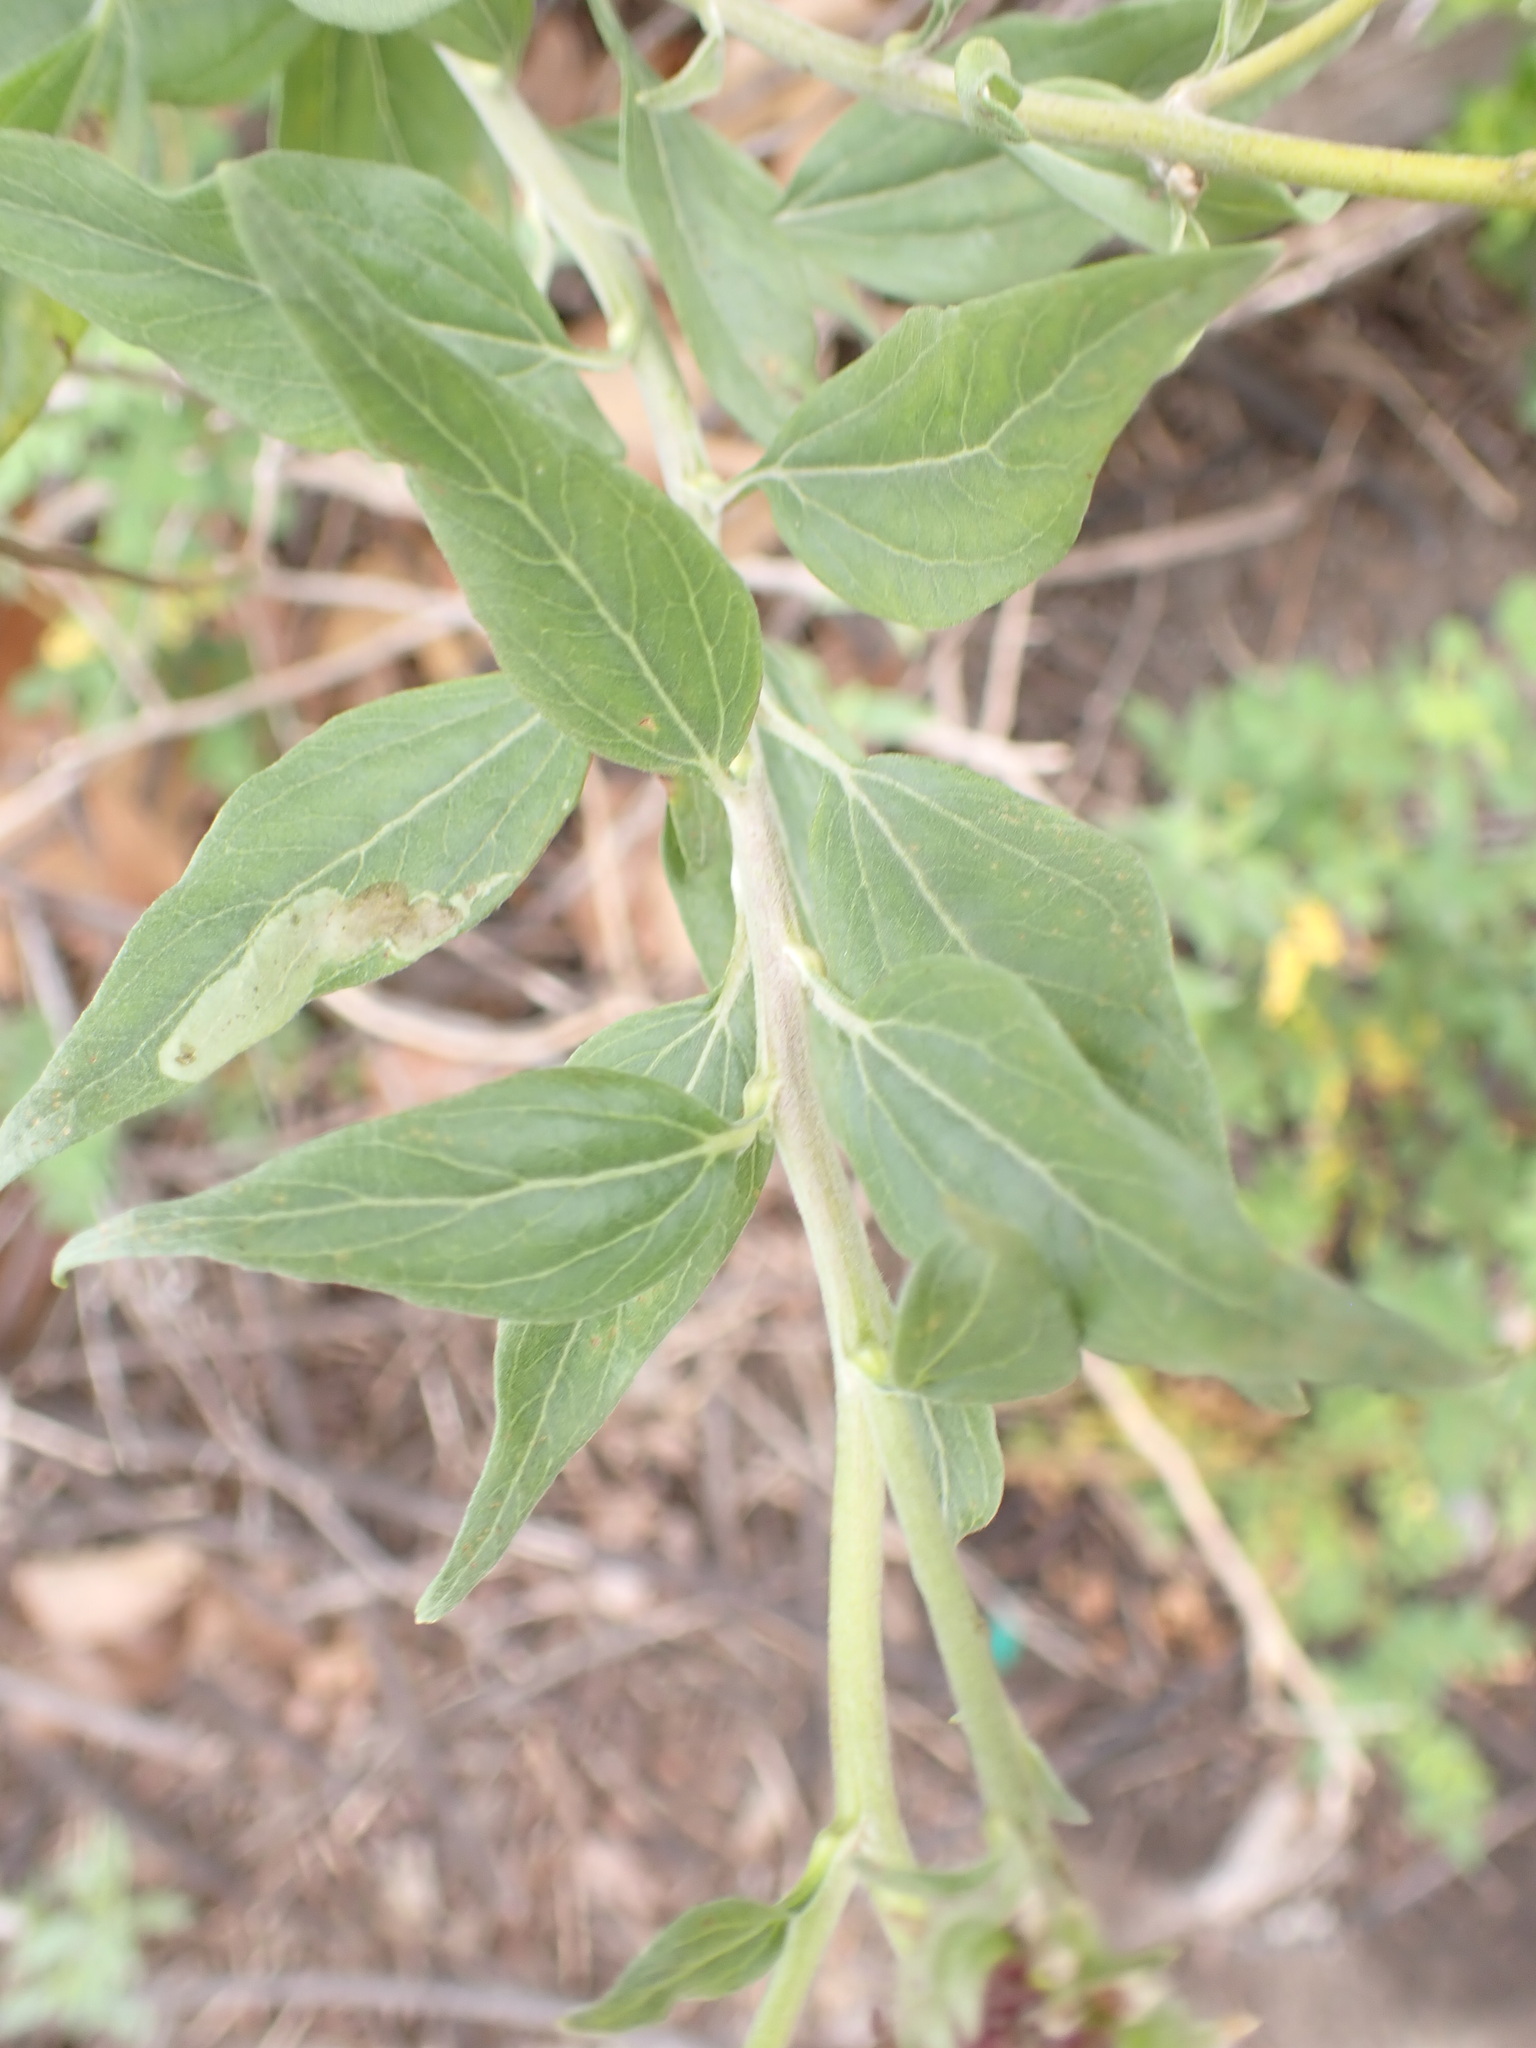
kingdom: Plantae
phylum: Tracheophyta
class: Magnoliopsida
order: Asterales
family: Asteraceae
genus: Encelia
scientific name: Encelia californica
